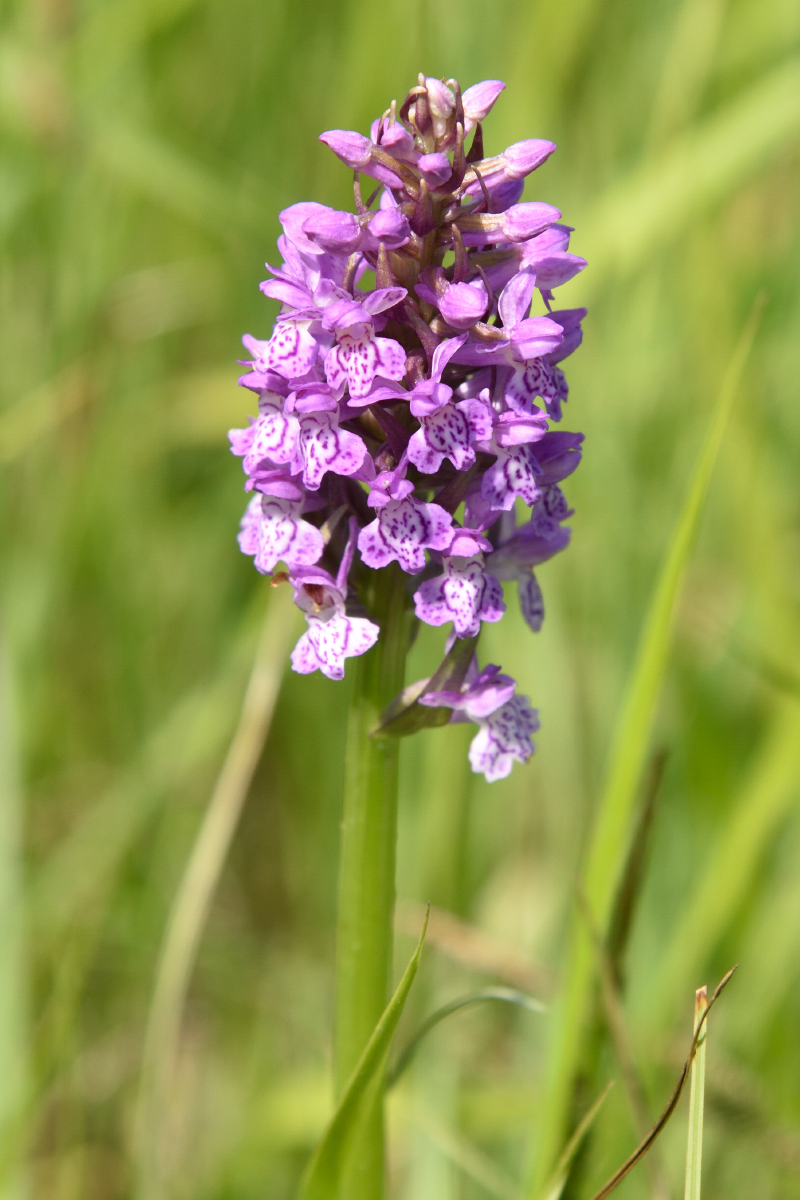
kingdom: Plantae
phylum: Tracheophyta
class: Liliopsida
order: Asparagales
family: Orchidaceae
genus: Dactylorhiza
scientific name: Dactylorhiza majalis
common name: Marsh orchid
